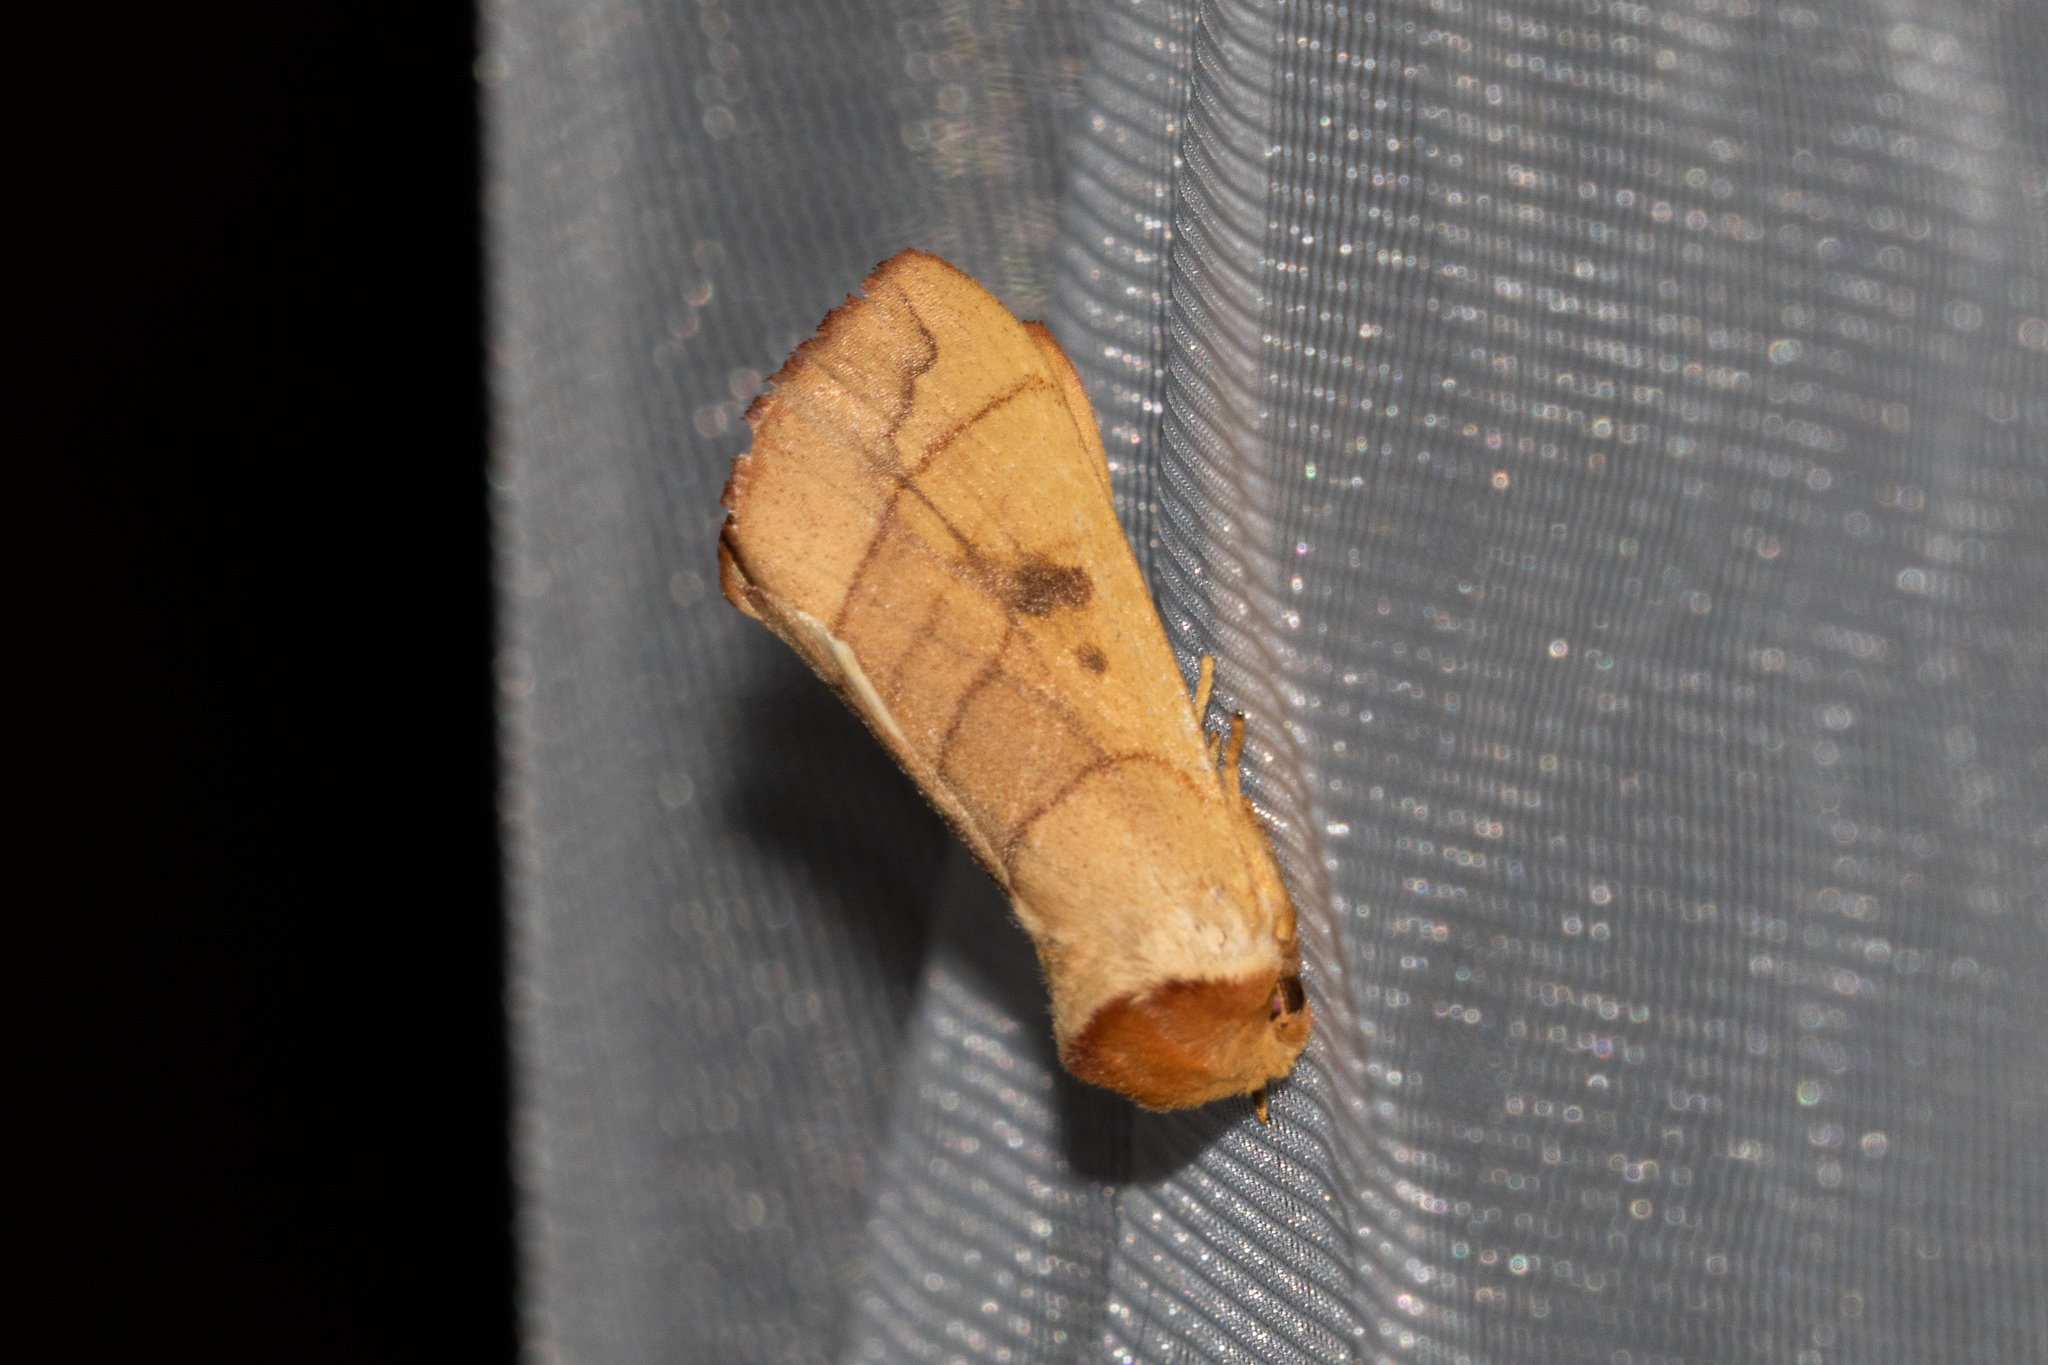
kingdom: Animalia
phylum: Arthropoda
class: Insecta
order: Lepidoptera
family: Notodontidae
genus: Datana
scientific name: Datana perspicua
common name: Spotted datana
